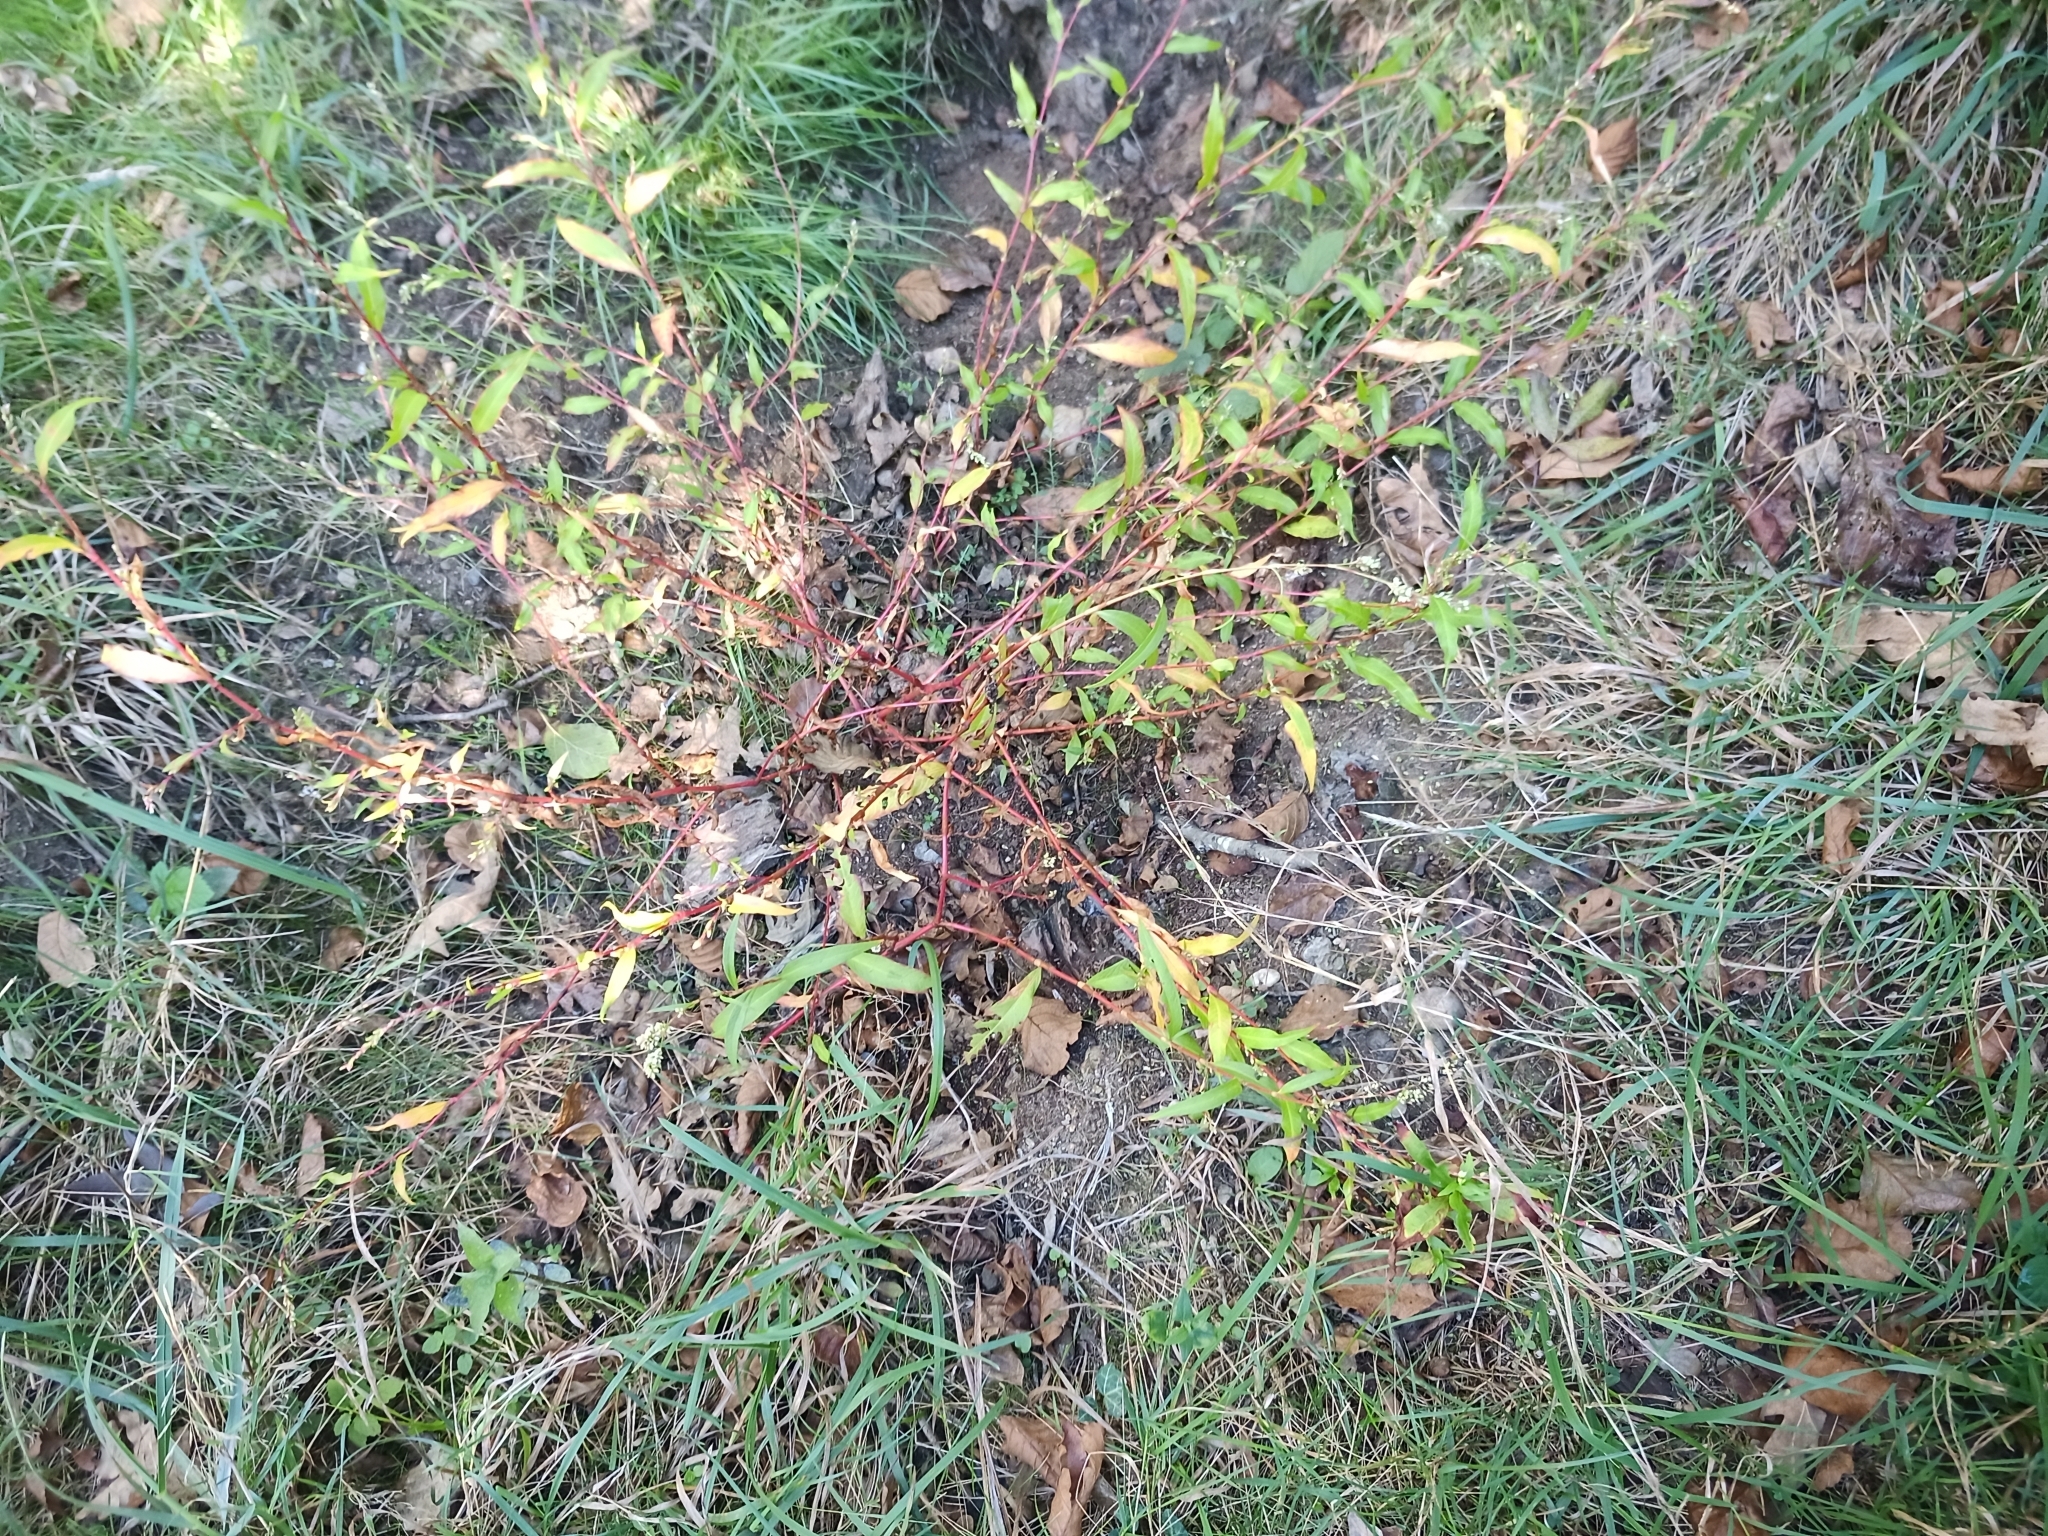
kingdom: Plantae
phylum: Tracheophyta
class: Magnoliopsida
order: Caryophyllales
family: Polygonaceae
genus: Persicaria
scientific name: Persicaria hydropiper
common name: Water-pepper
